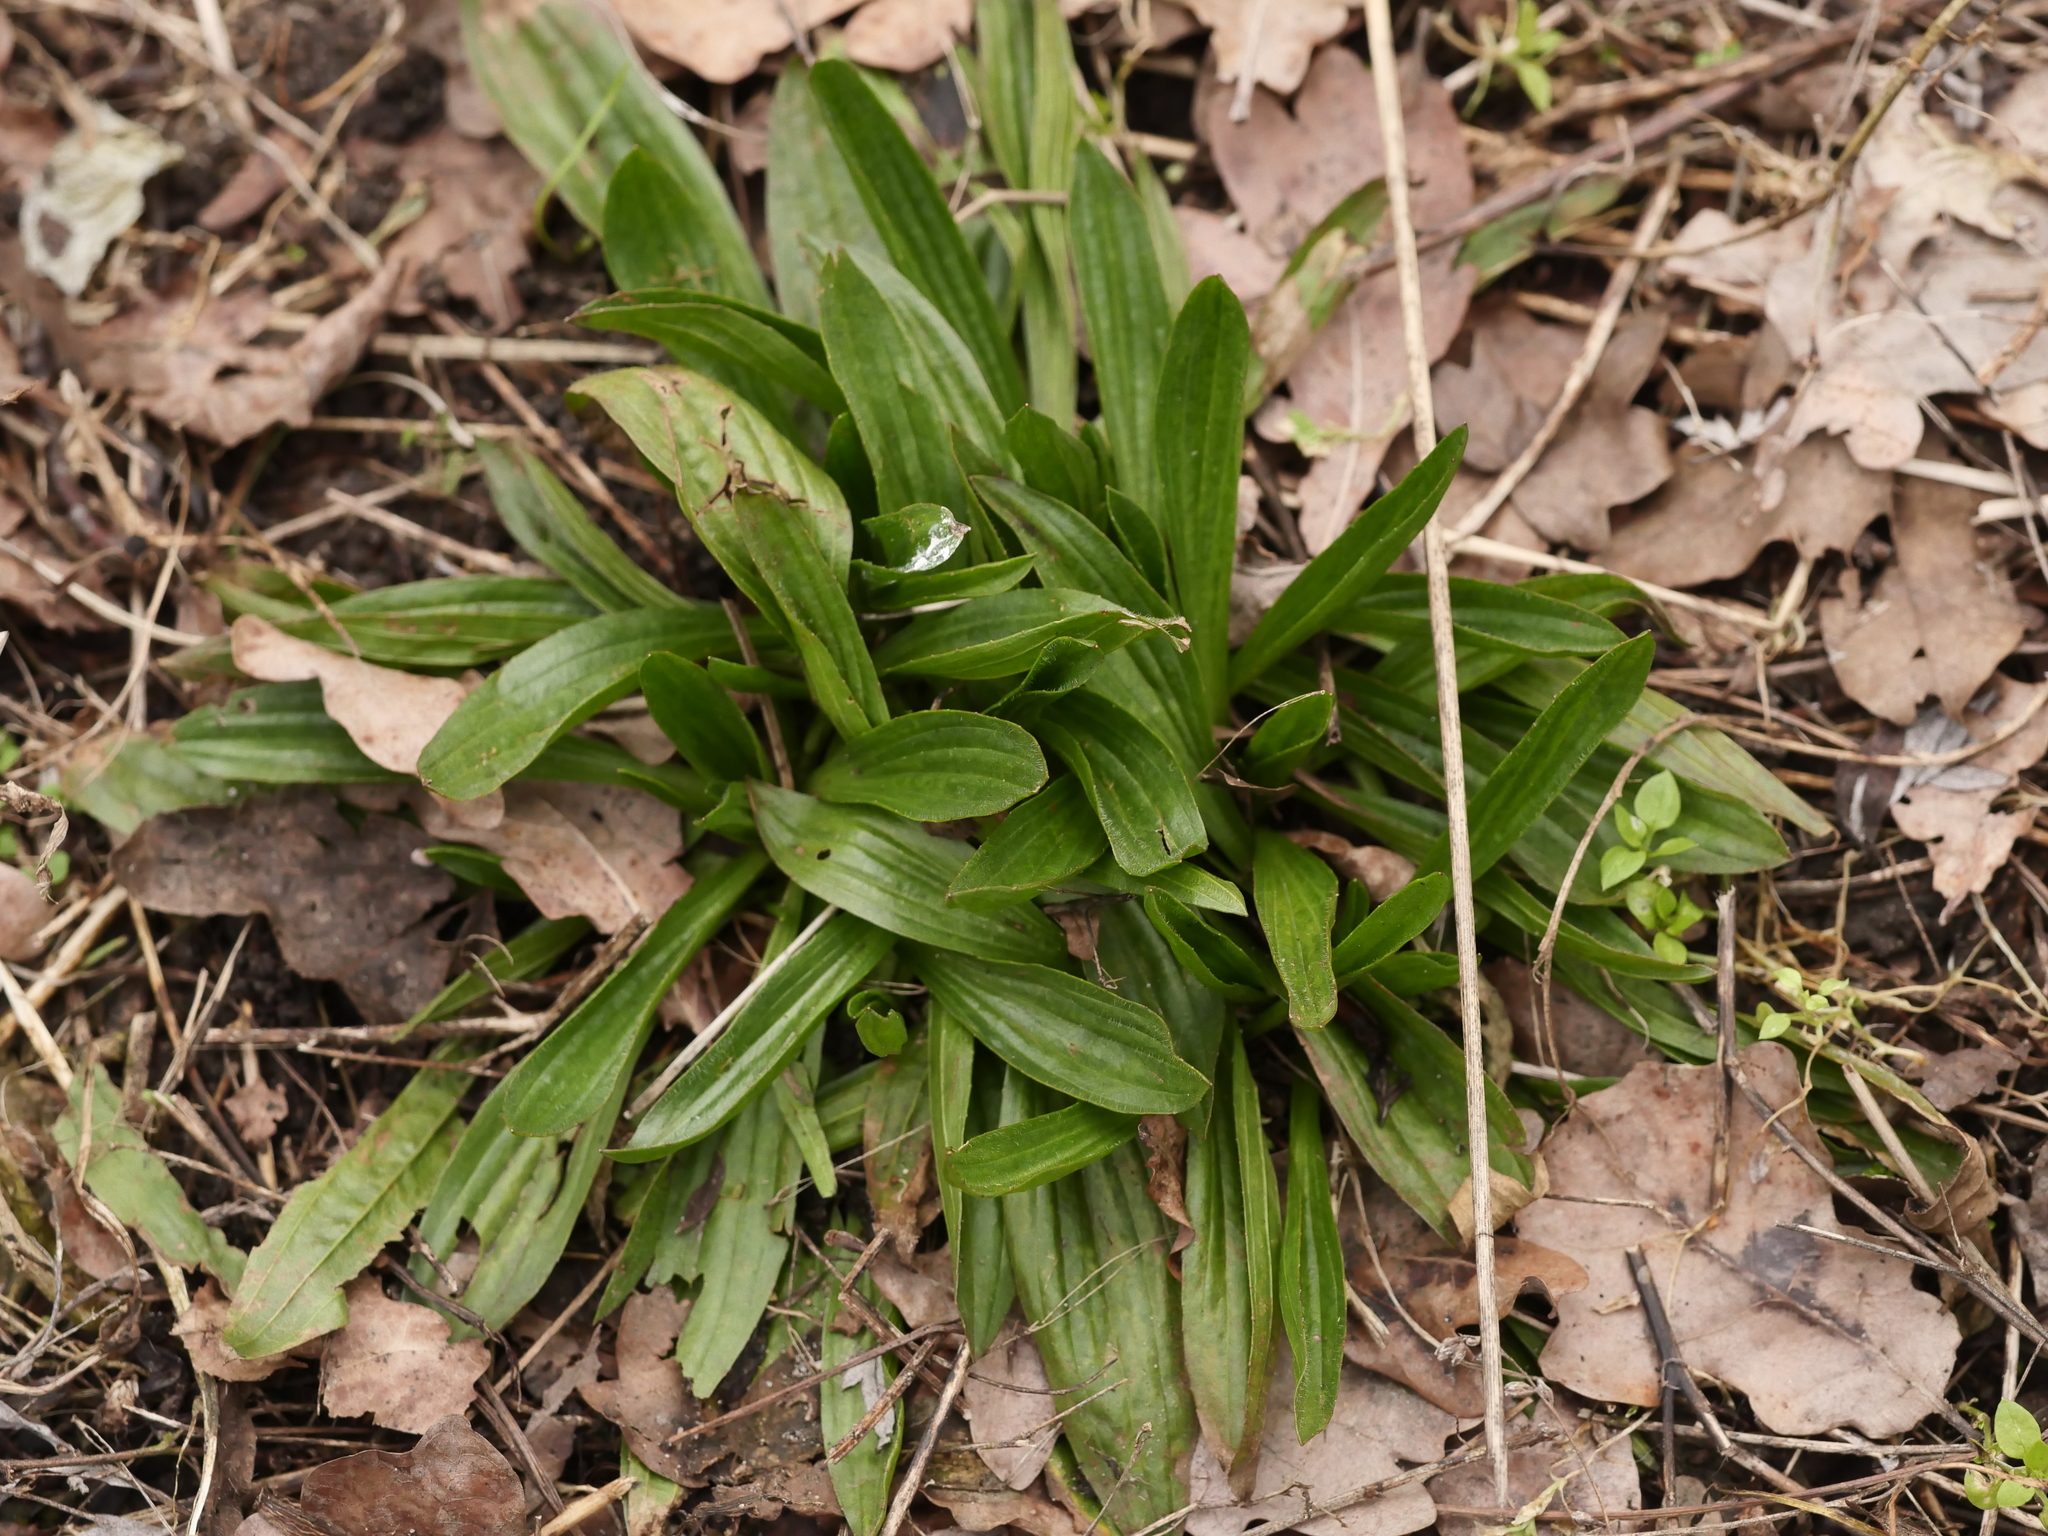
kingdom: Plantae
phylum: Tracheophyta
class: Magnoliopsida
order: Lamiales
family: Plantaginaceae
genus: Plantago
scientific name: Plantago lanceolata
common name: Ribwort plantain
